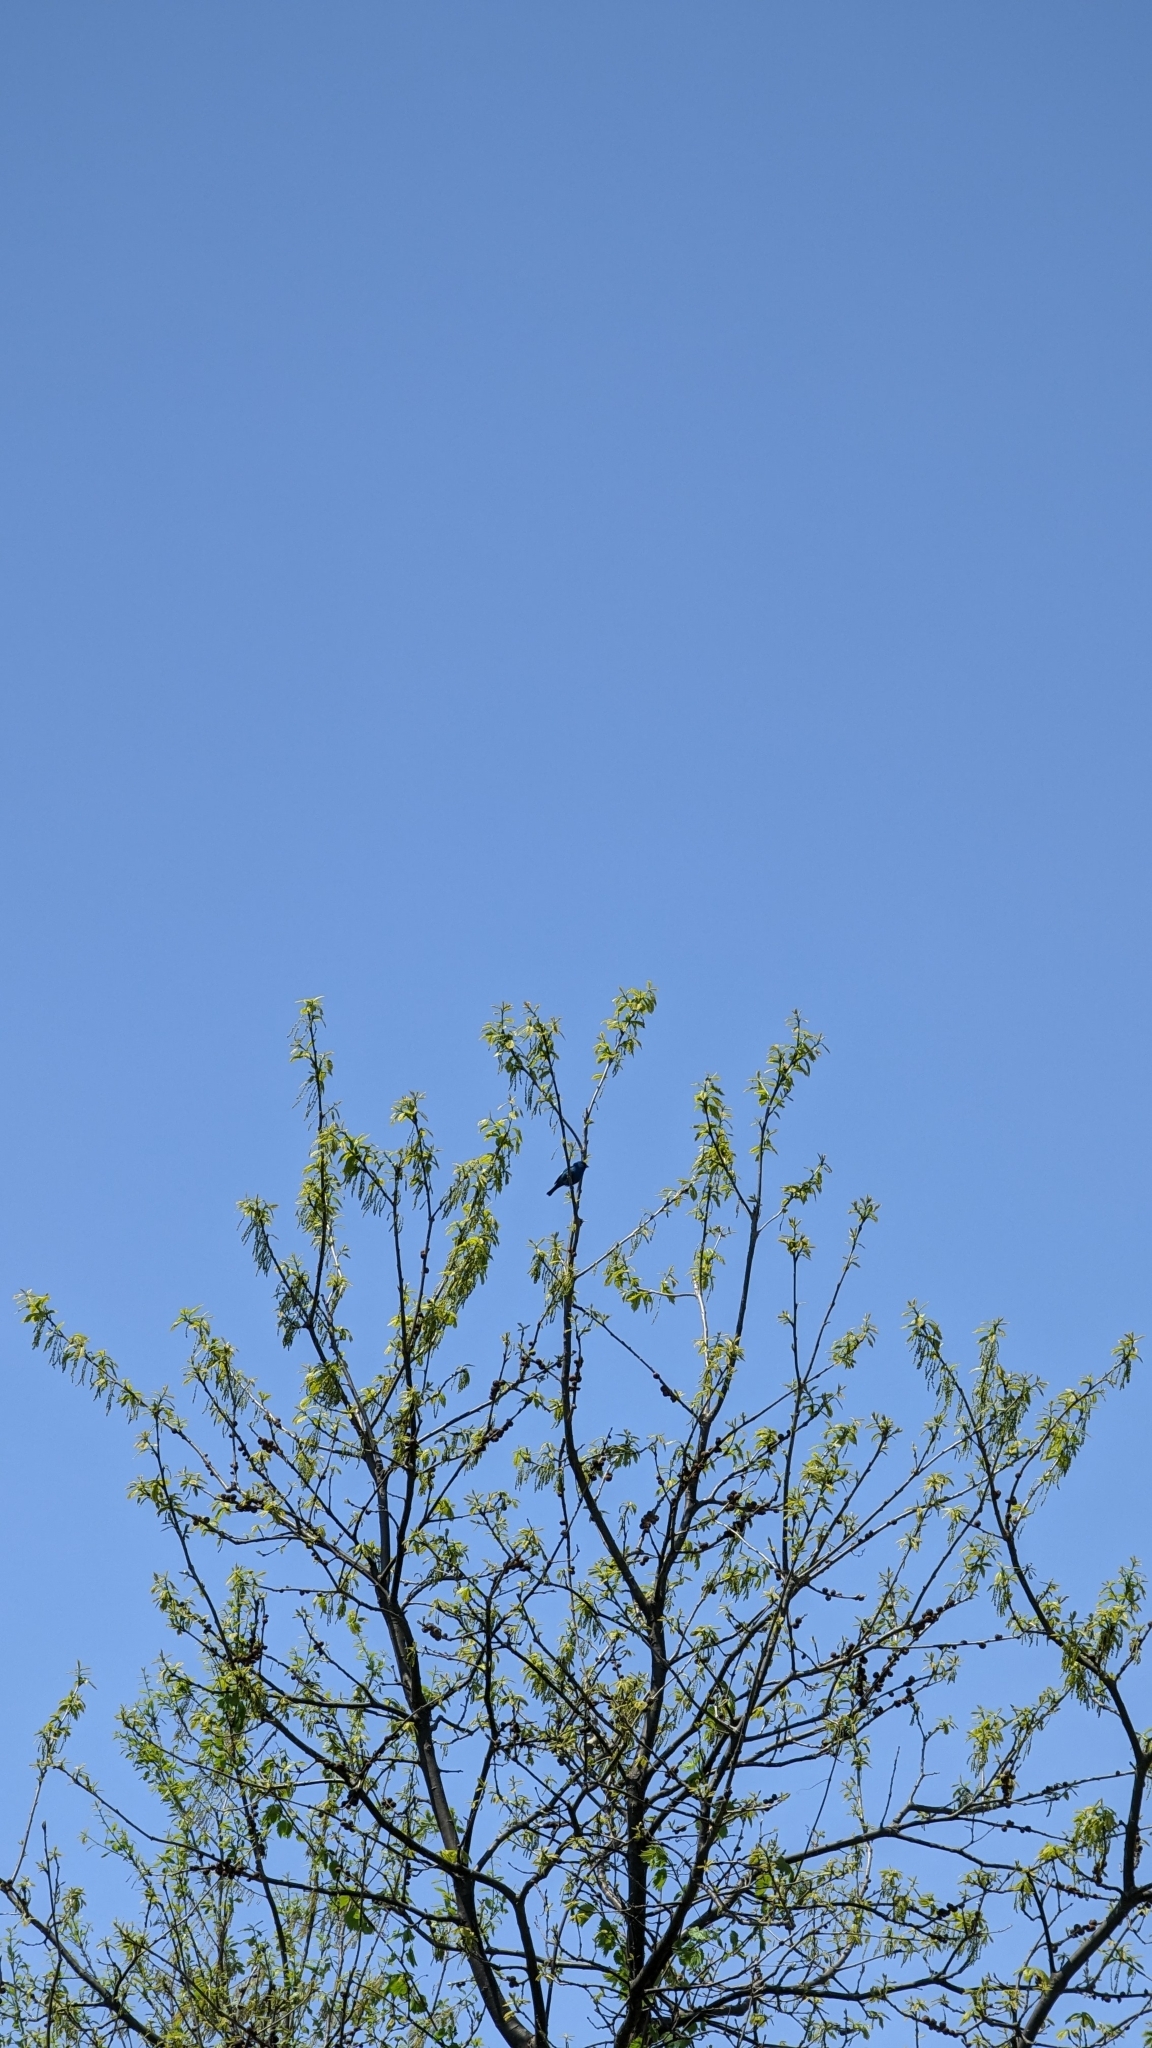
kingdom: Animalia
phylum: Chordata
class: Aves
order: Passeriformes
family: Cardinalidae
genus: Passerina
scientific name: Passerina cyanea
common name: Indigo bunting
